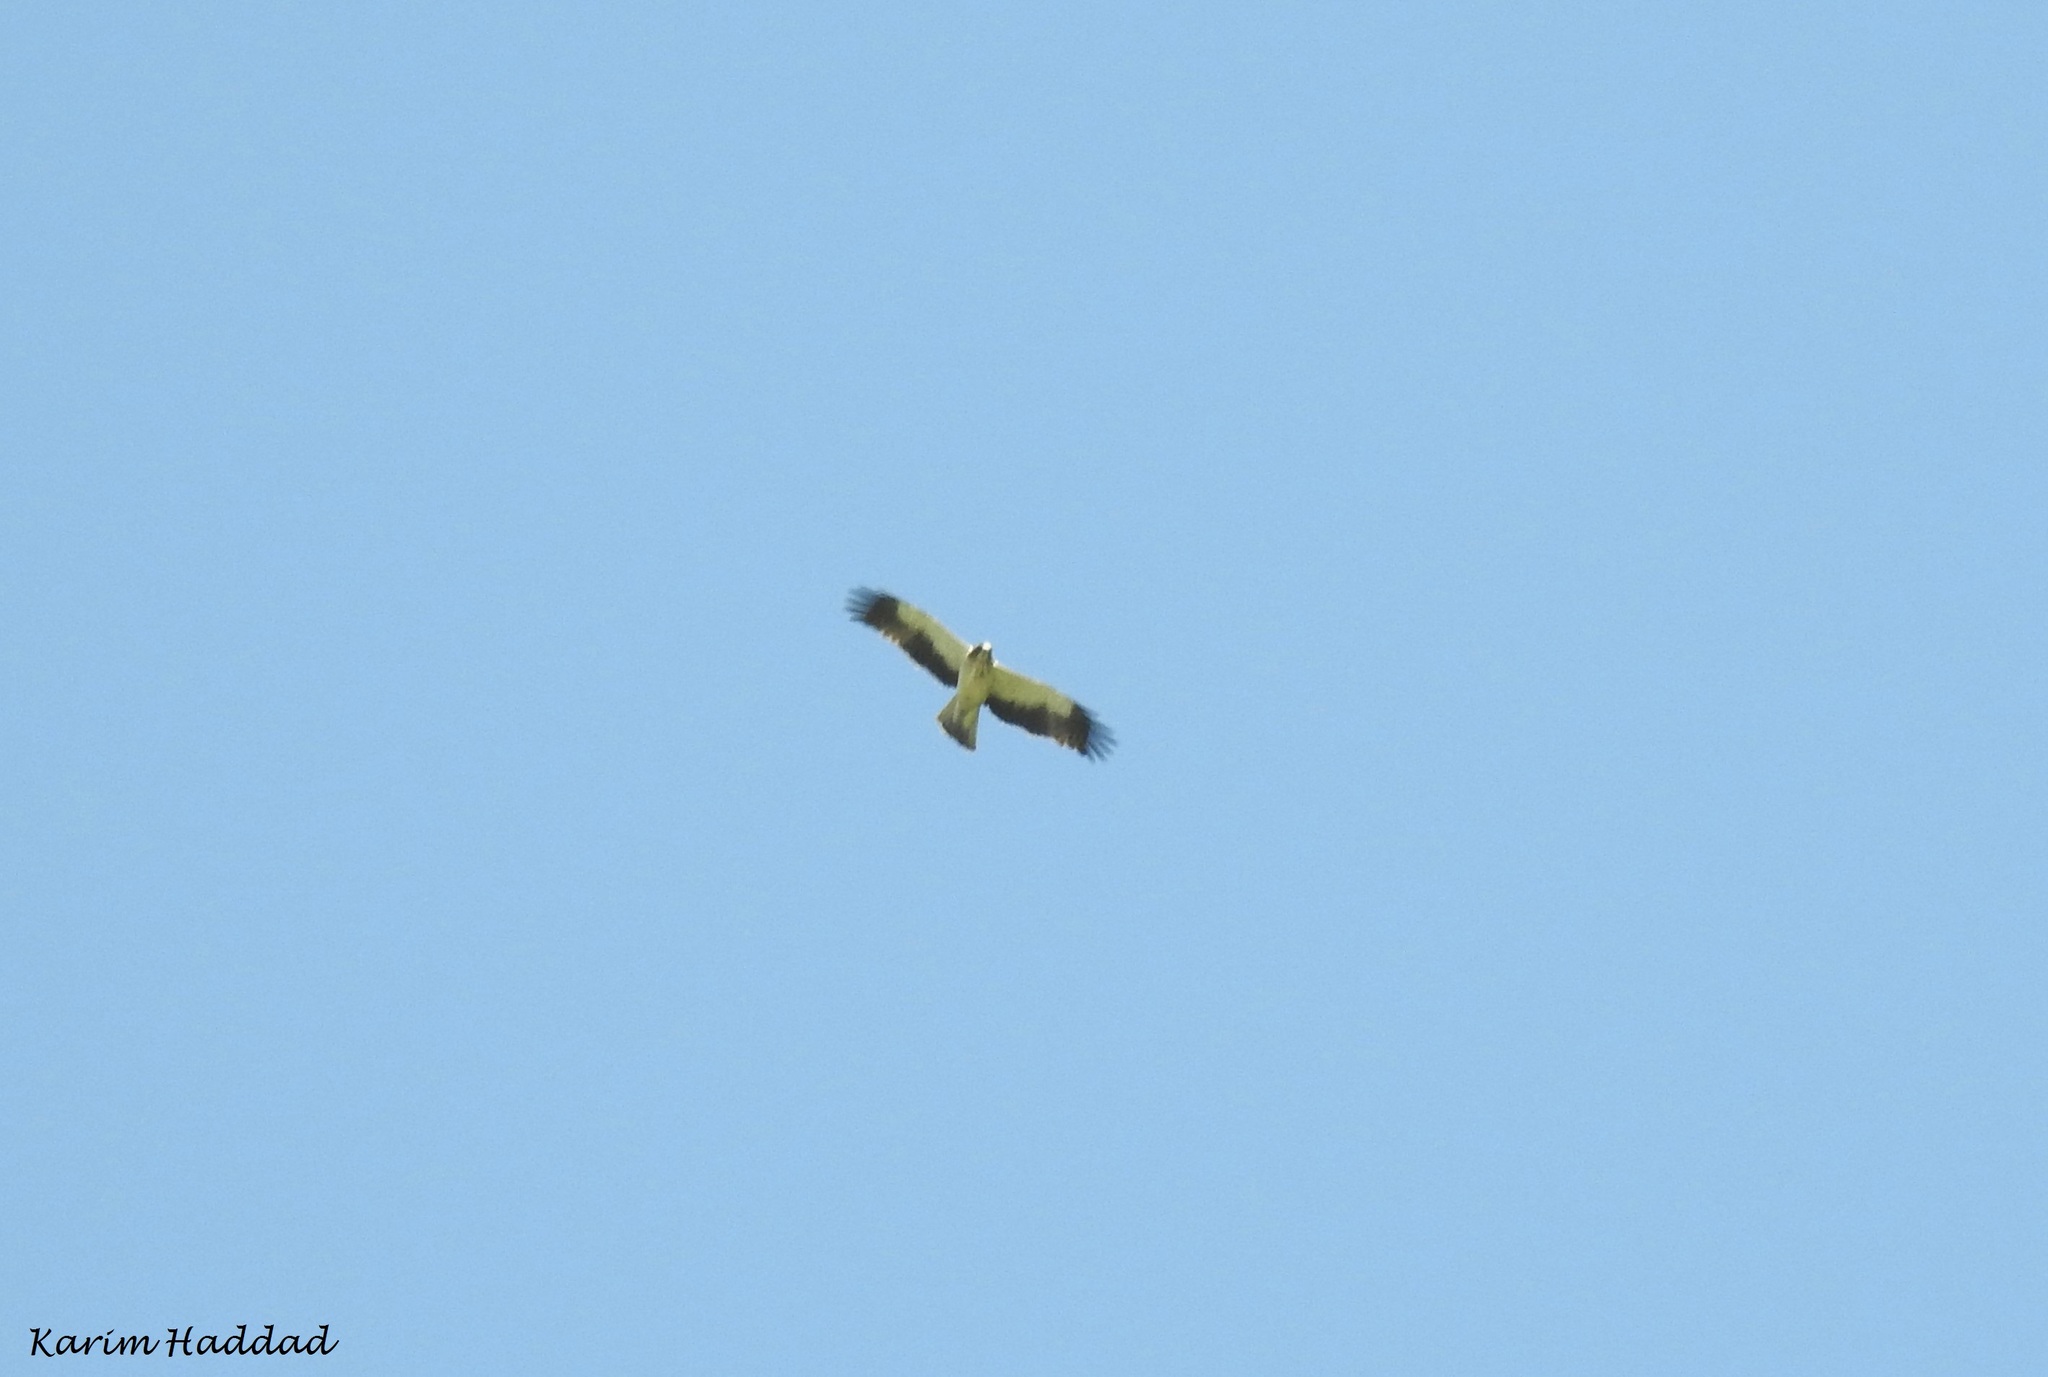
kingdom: Animalia
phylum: Chordata
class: Aves
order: Accipitriformes
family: Accipitridae
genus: Hieraaetus
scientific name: Hieraaetus pennatus
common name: Booted eagle
